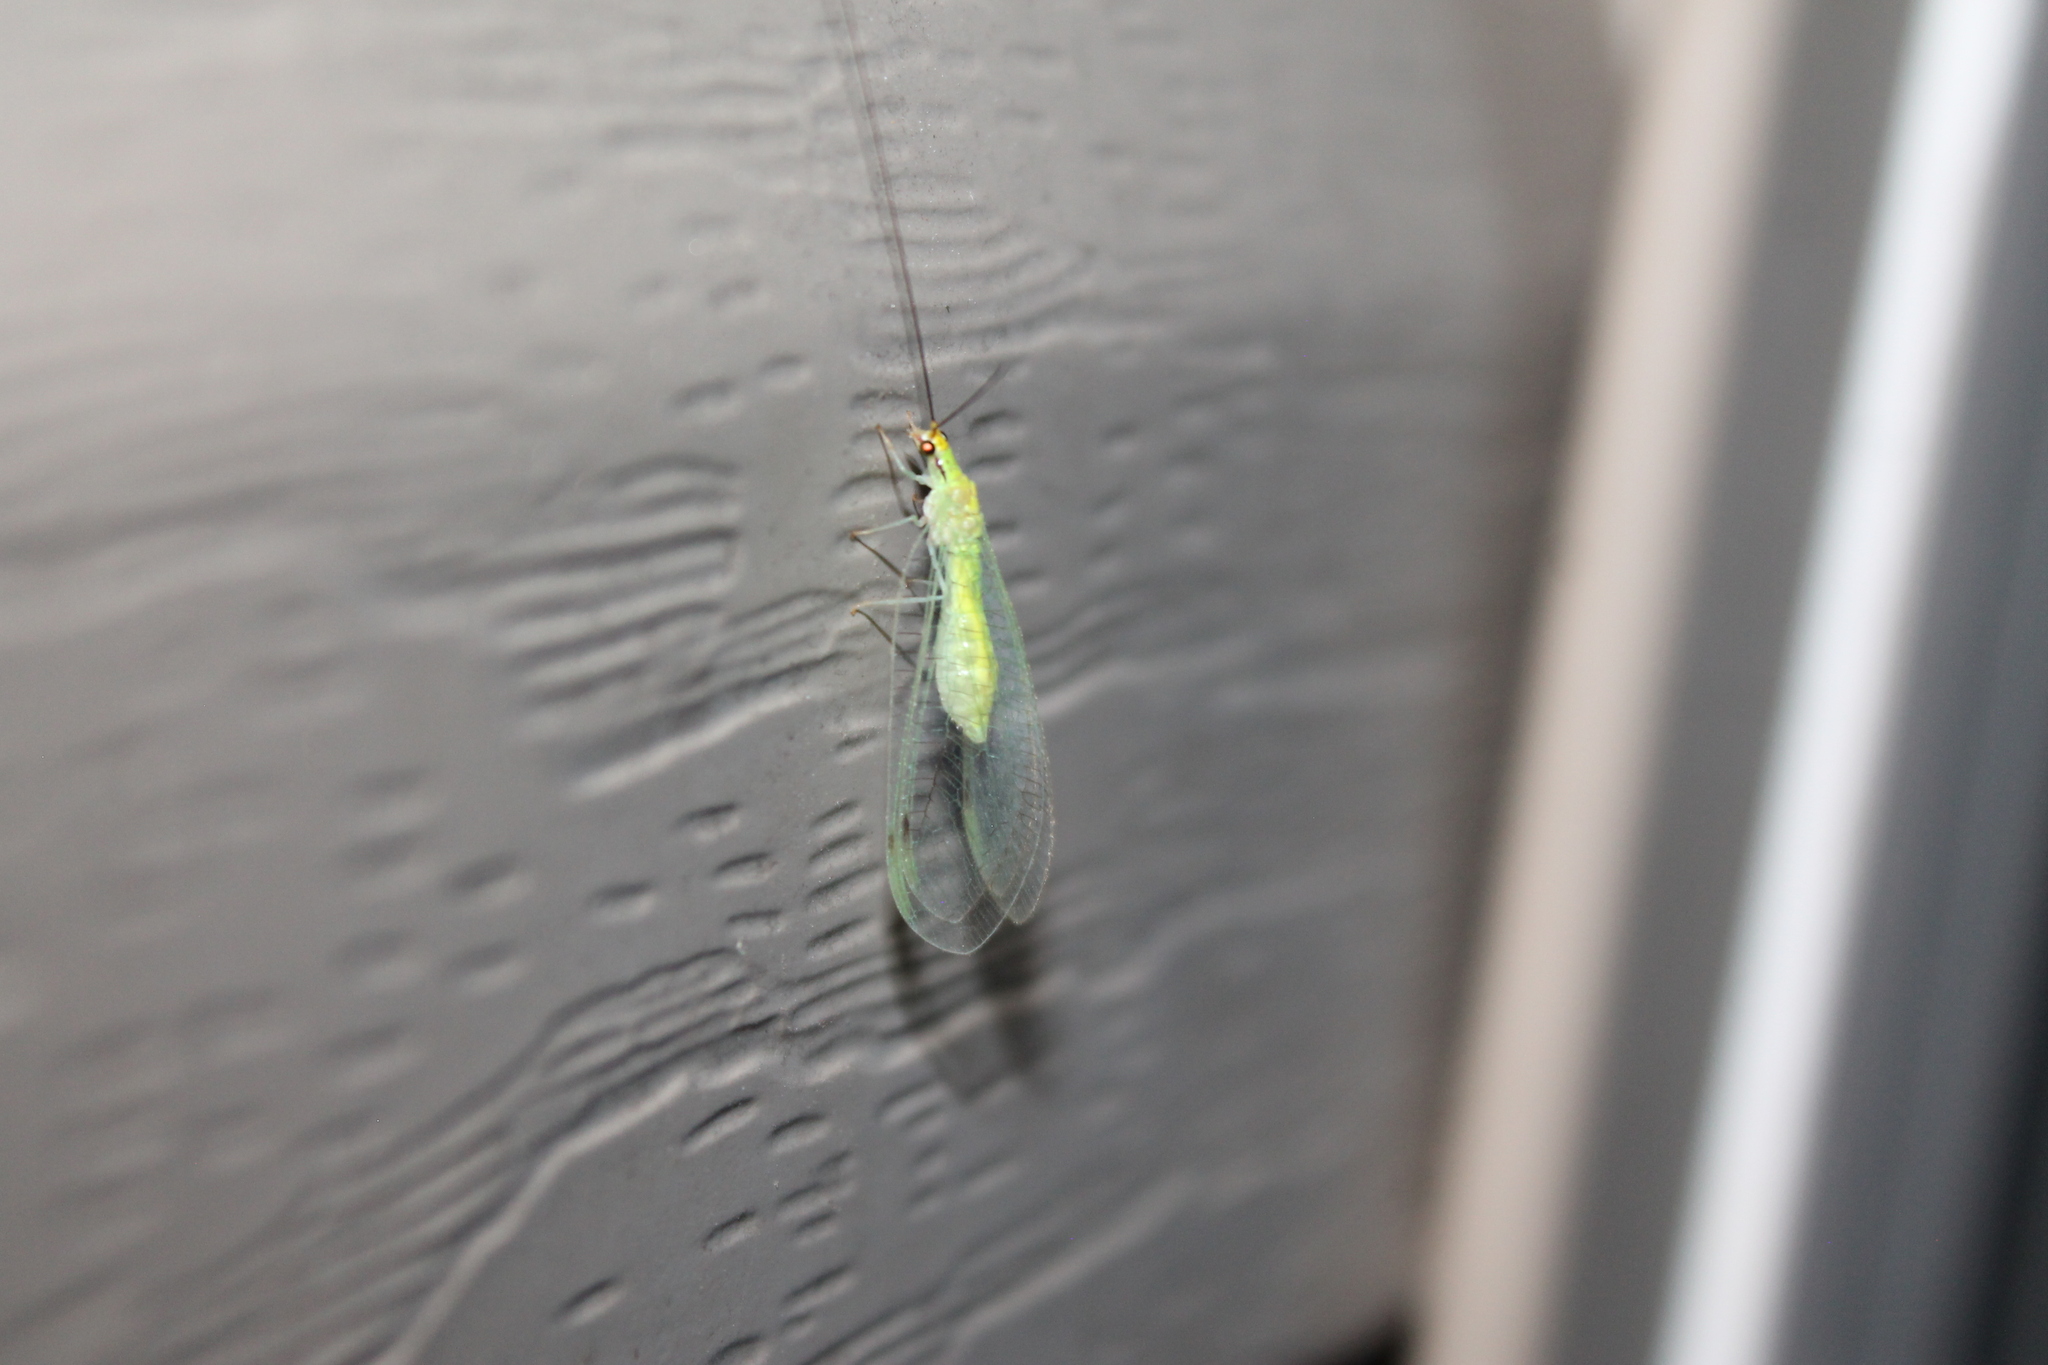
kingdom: Animalia
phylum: Arthropoda
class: Insecta
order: Neuroptera
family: Chrysopidae
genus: Leucochrysa
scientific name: Leucochrysa pavida
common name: Lichen-carrying green lacewing
